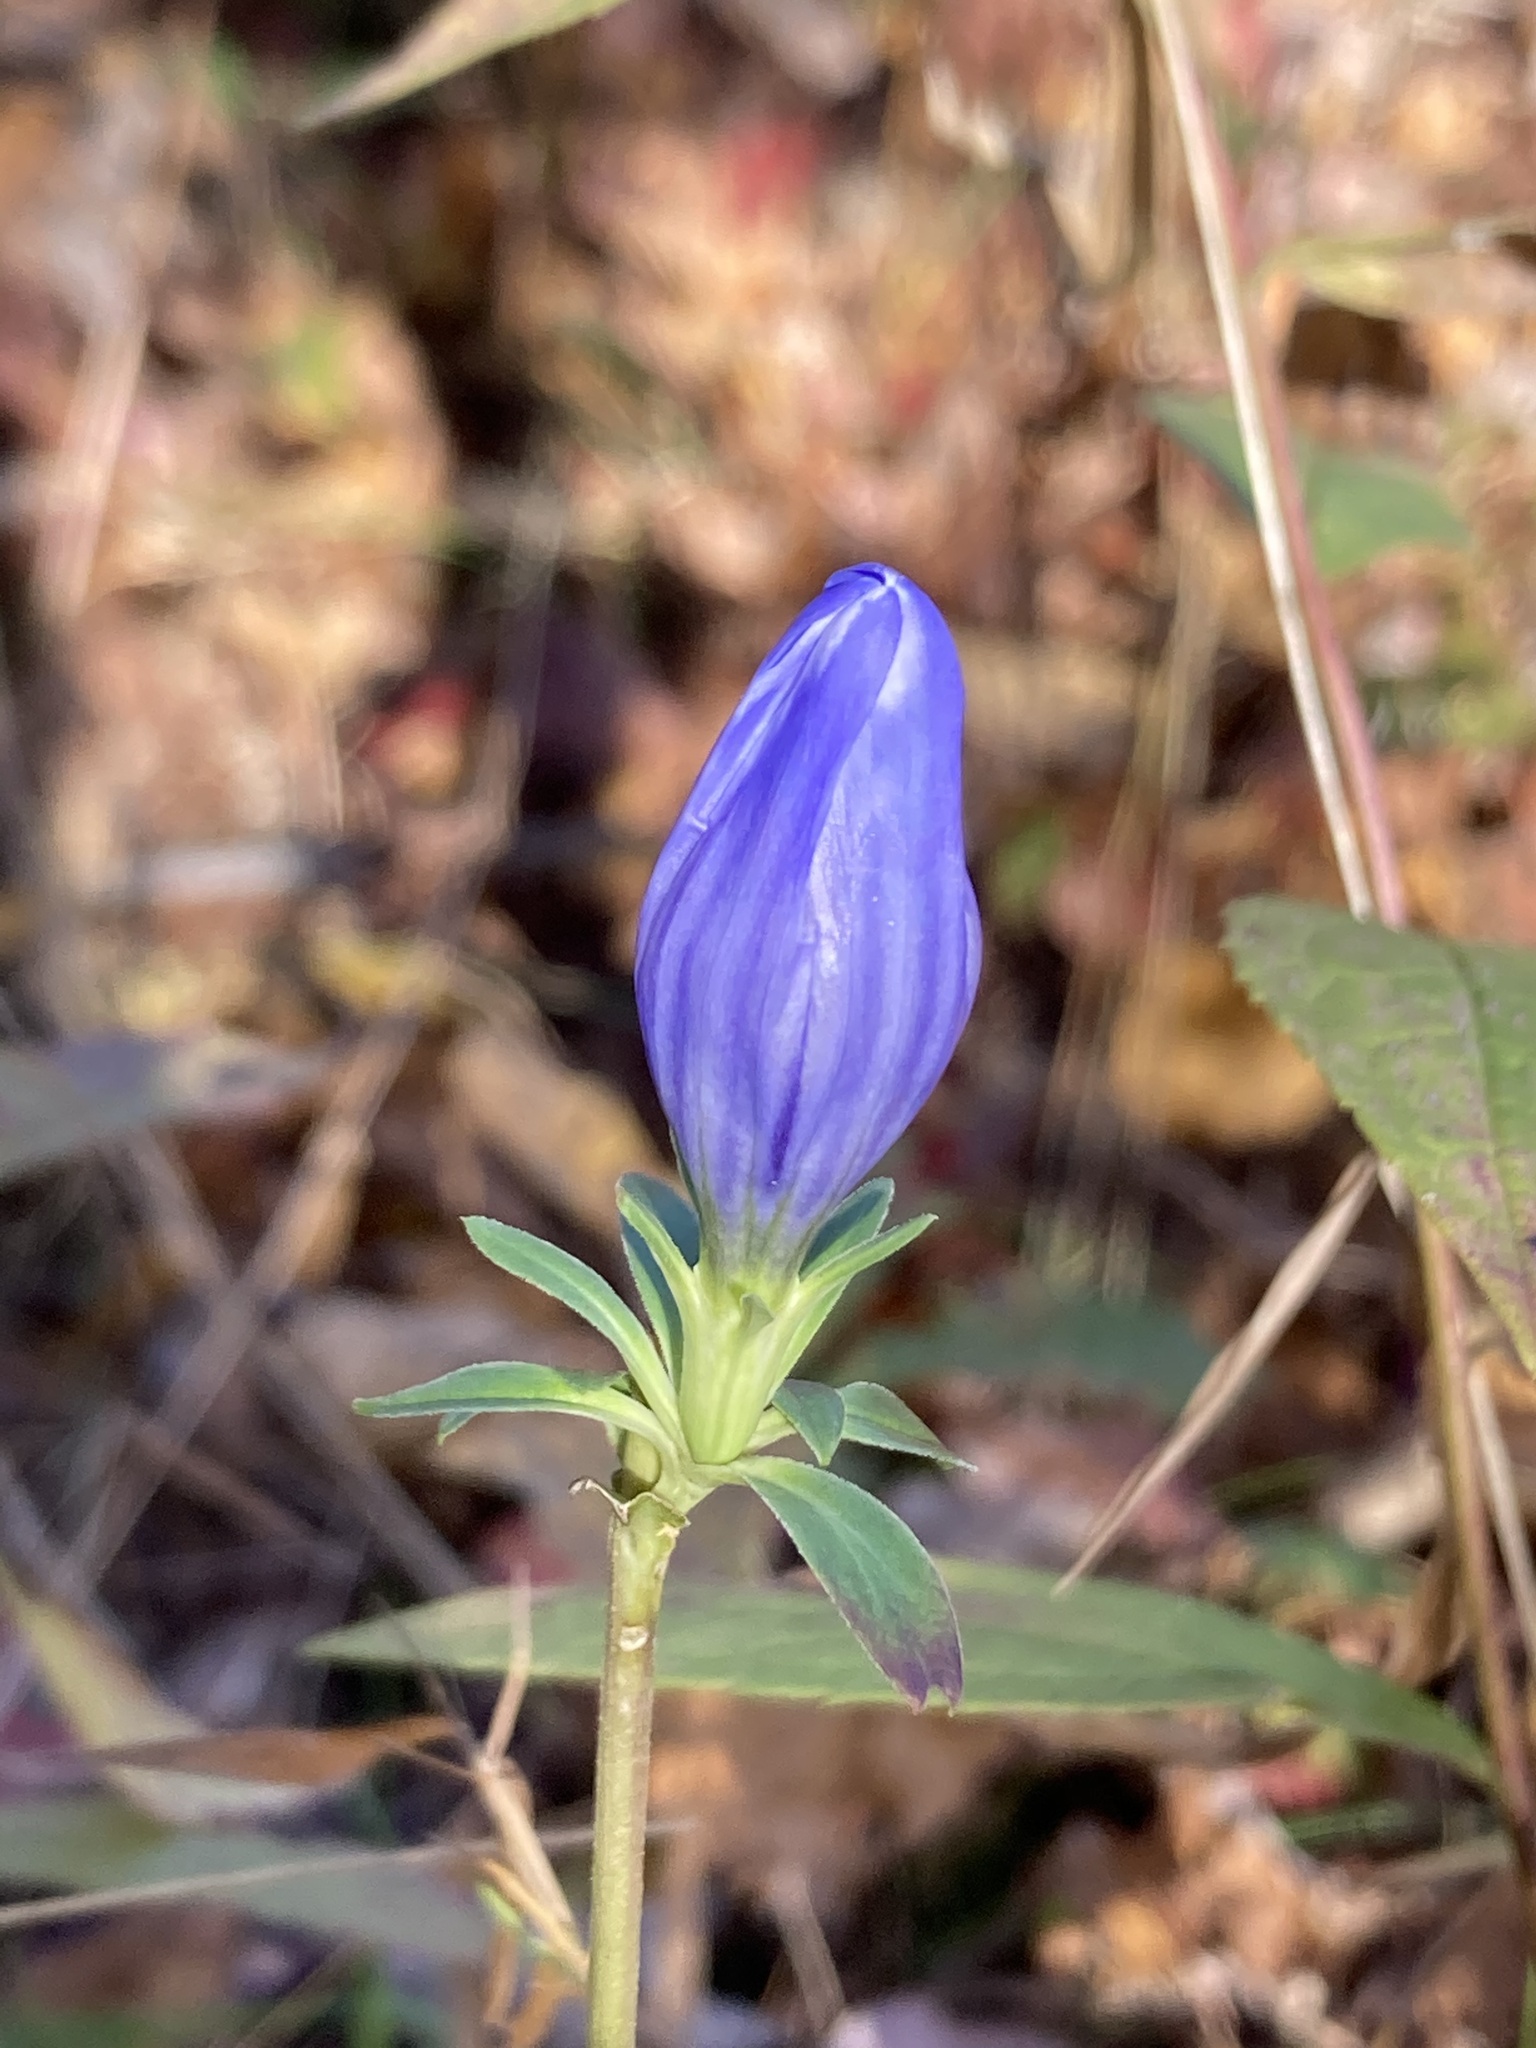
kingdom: Plantae
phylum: Tracheophyta
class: Magnoliopsida
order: Gentianales
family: Gentianaceae
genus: Gentiana
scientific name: Gentiana saponaria
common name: Soapwort gentian
